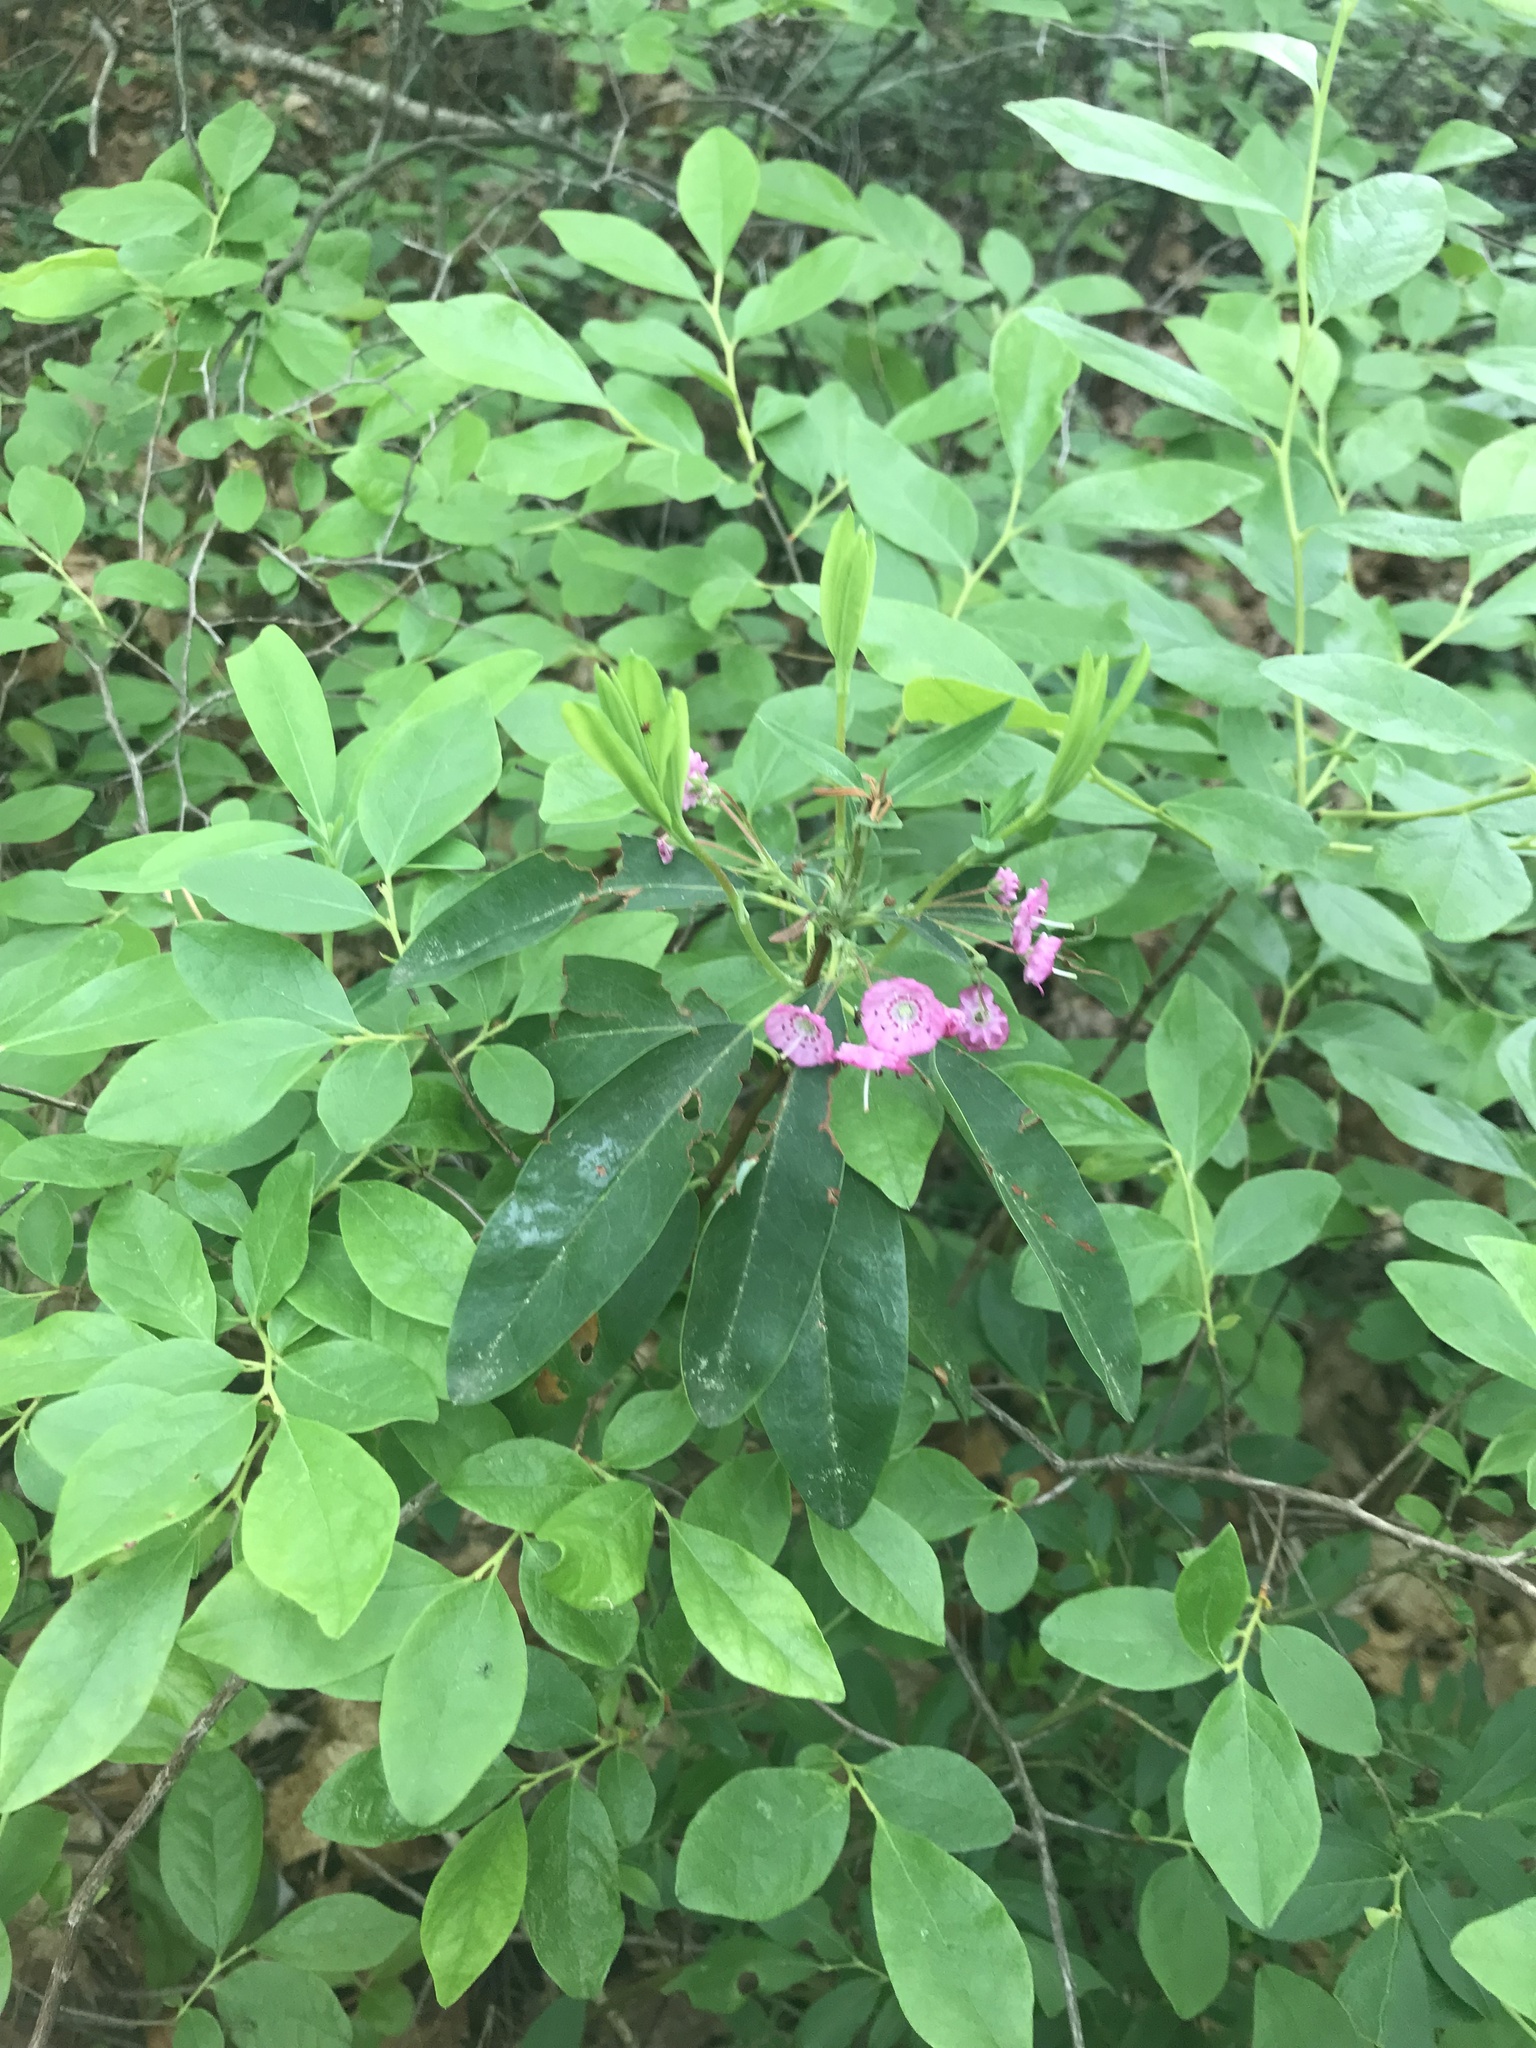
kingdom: Plantae
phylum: Tracheophyta
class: Magnoliopsida
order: Ericales
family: Ericaceae
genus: Kalmia
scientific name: Kalmia angustifolia
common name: Sheep-laurel
